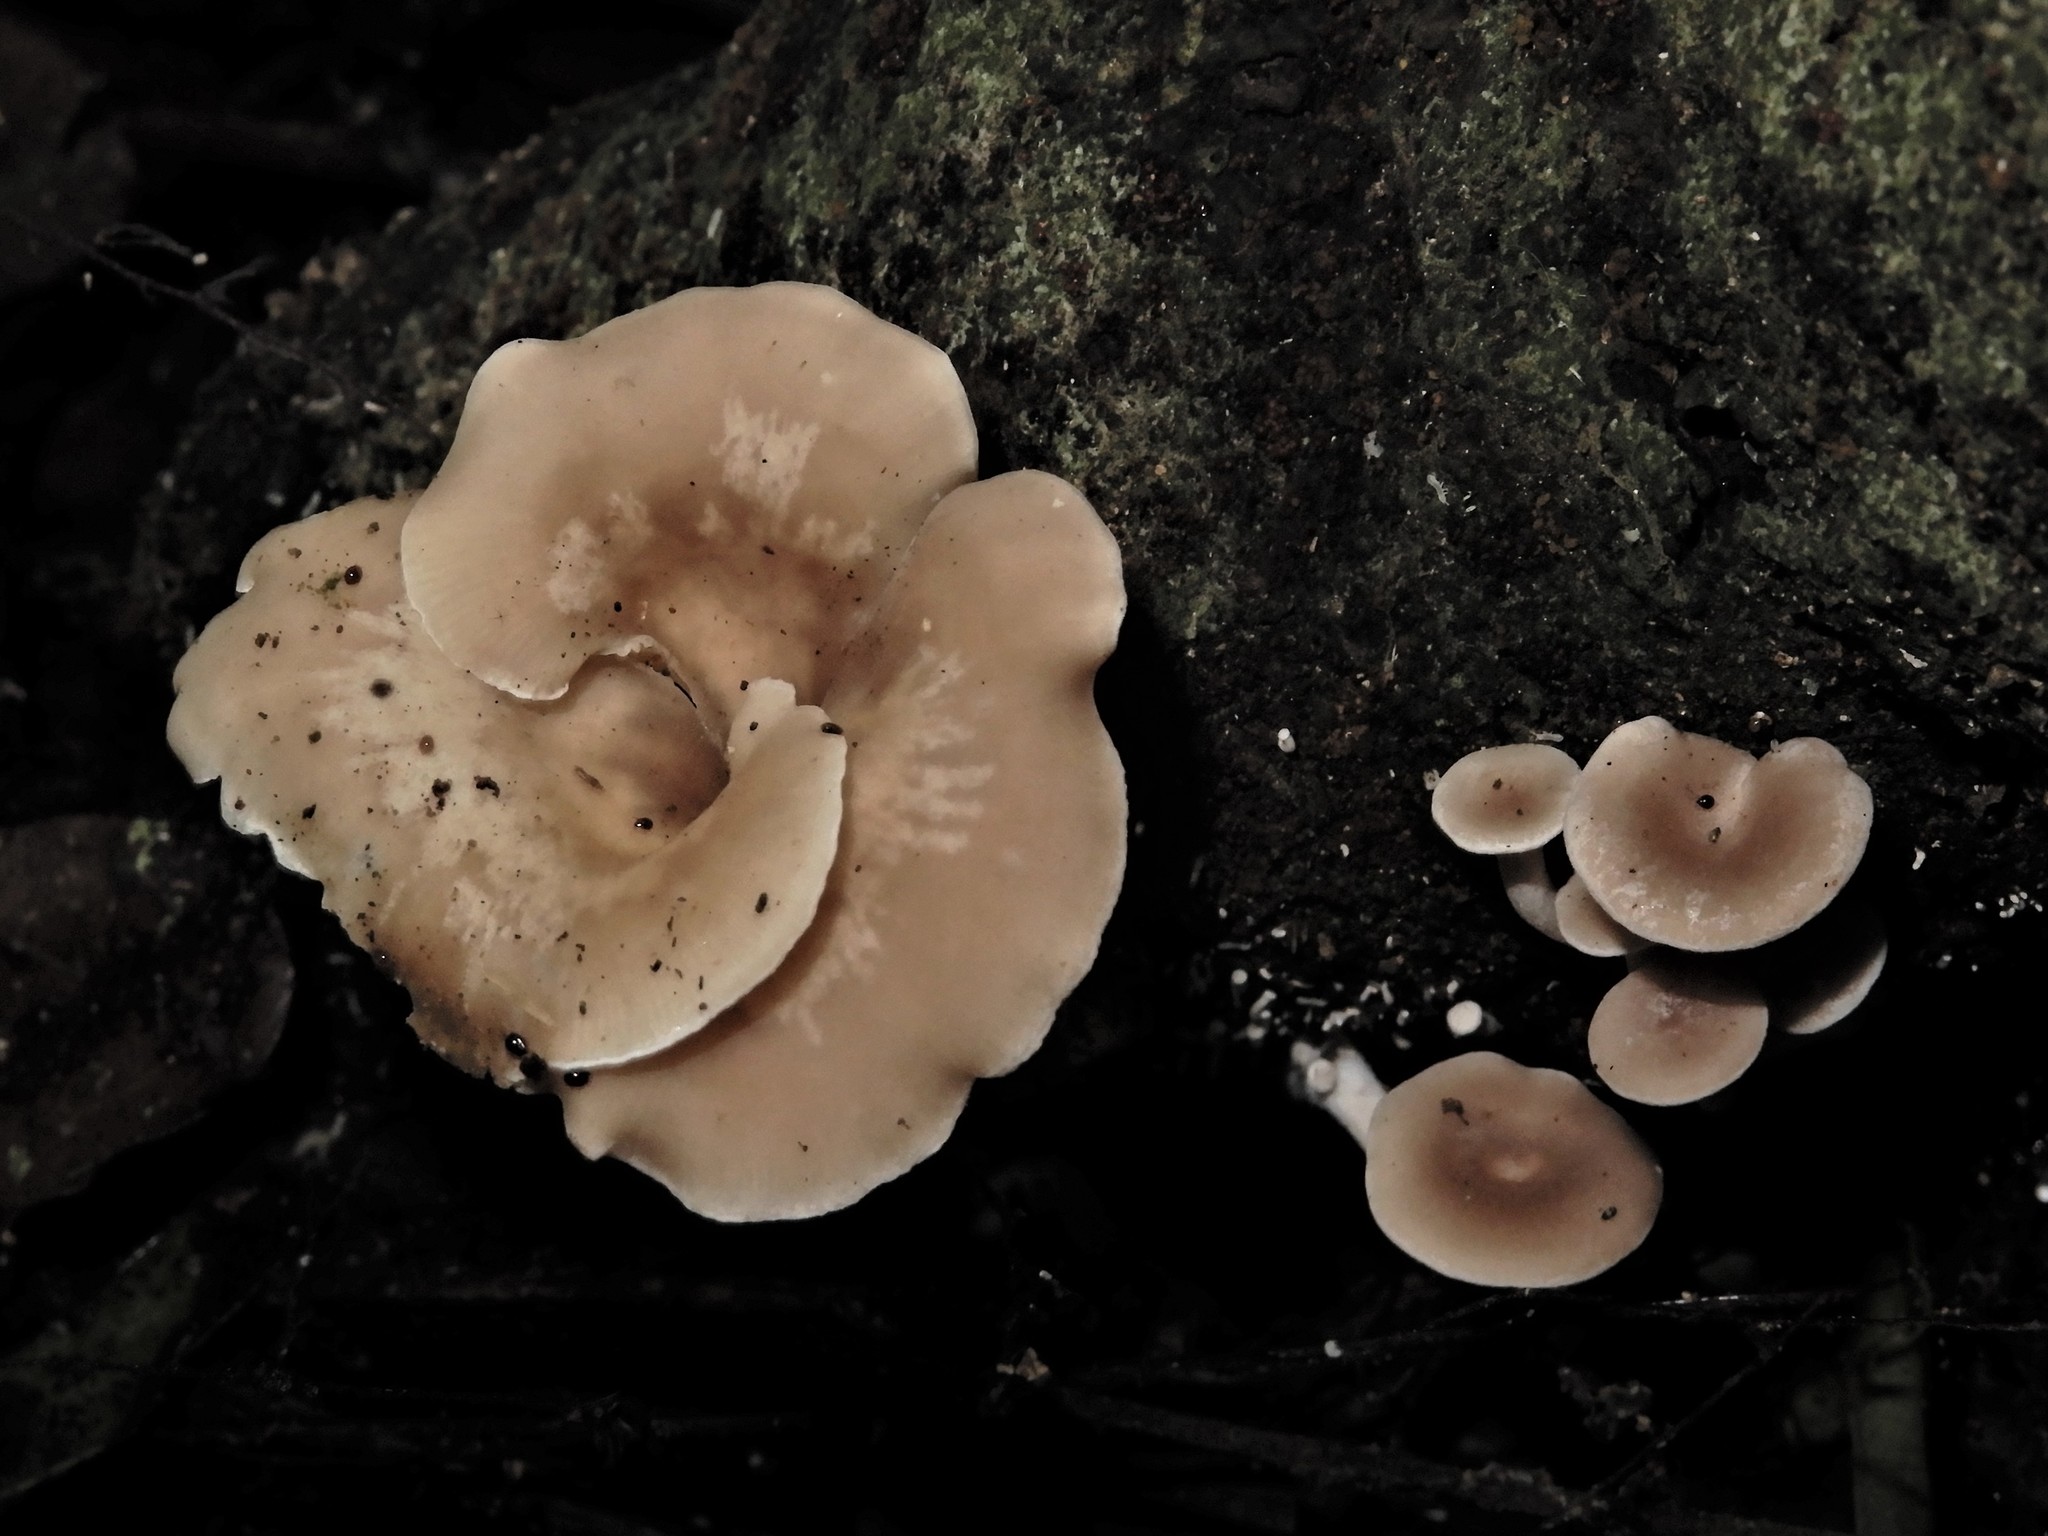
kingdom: Fungi
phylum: Basidiomycota
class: Agaricomycetes
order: Agaricales
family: Tricholomataceae
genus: Clitocybe
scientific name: Clitocybe wellingtonensis
